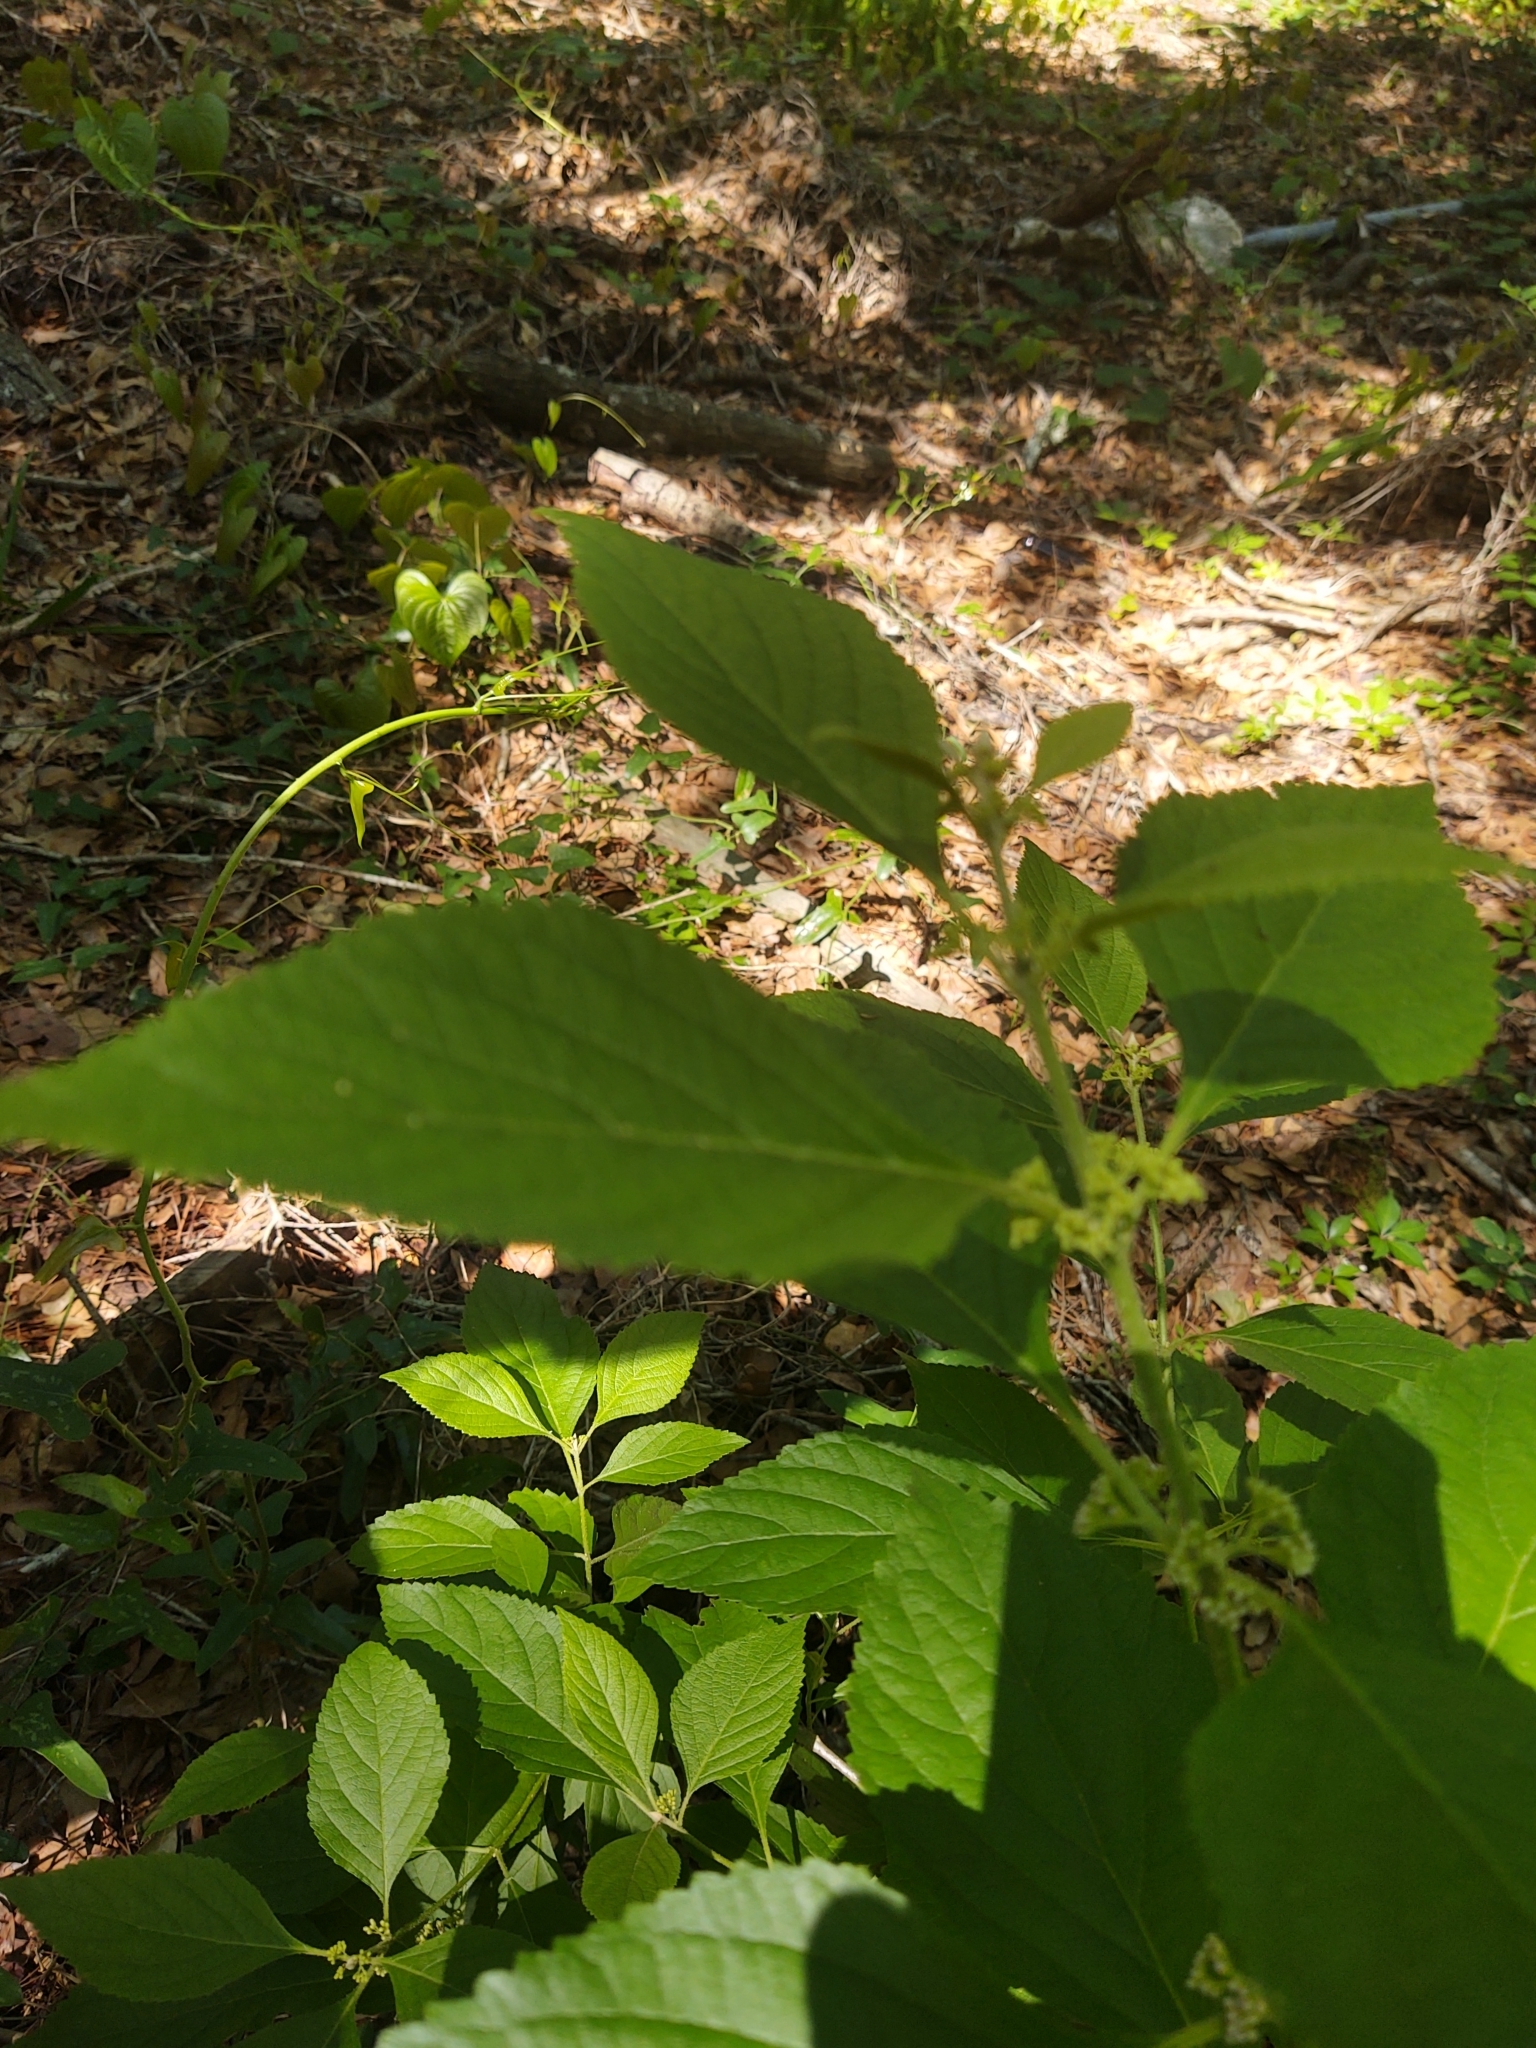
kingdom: Plantae
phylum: Tracheophyta
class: Magnoliopsida
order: Lamiales
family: Lamiaceae
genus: Callicarpa
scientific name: Callicarpa americana
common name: American beautyberry
